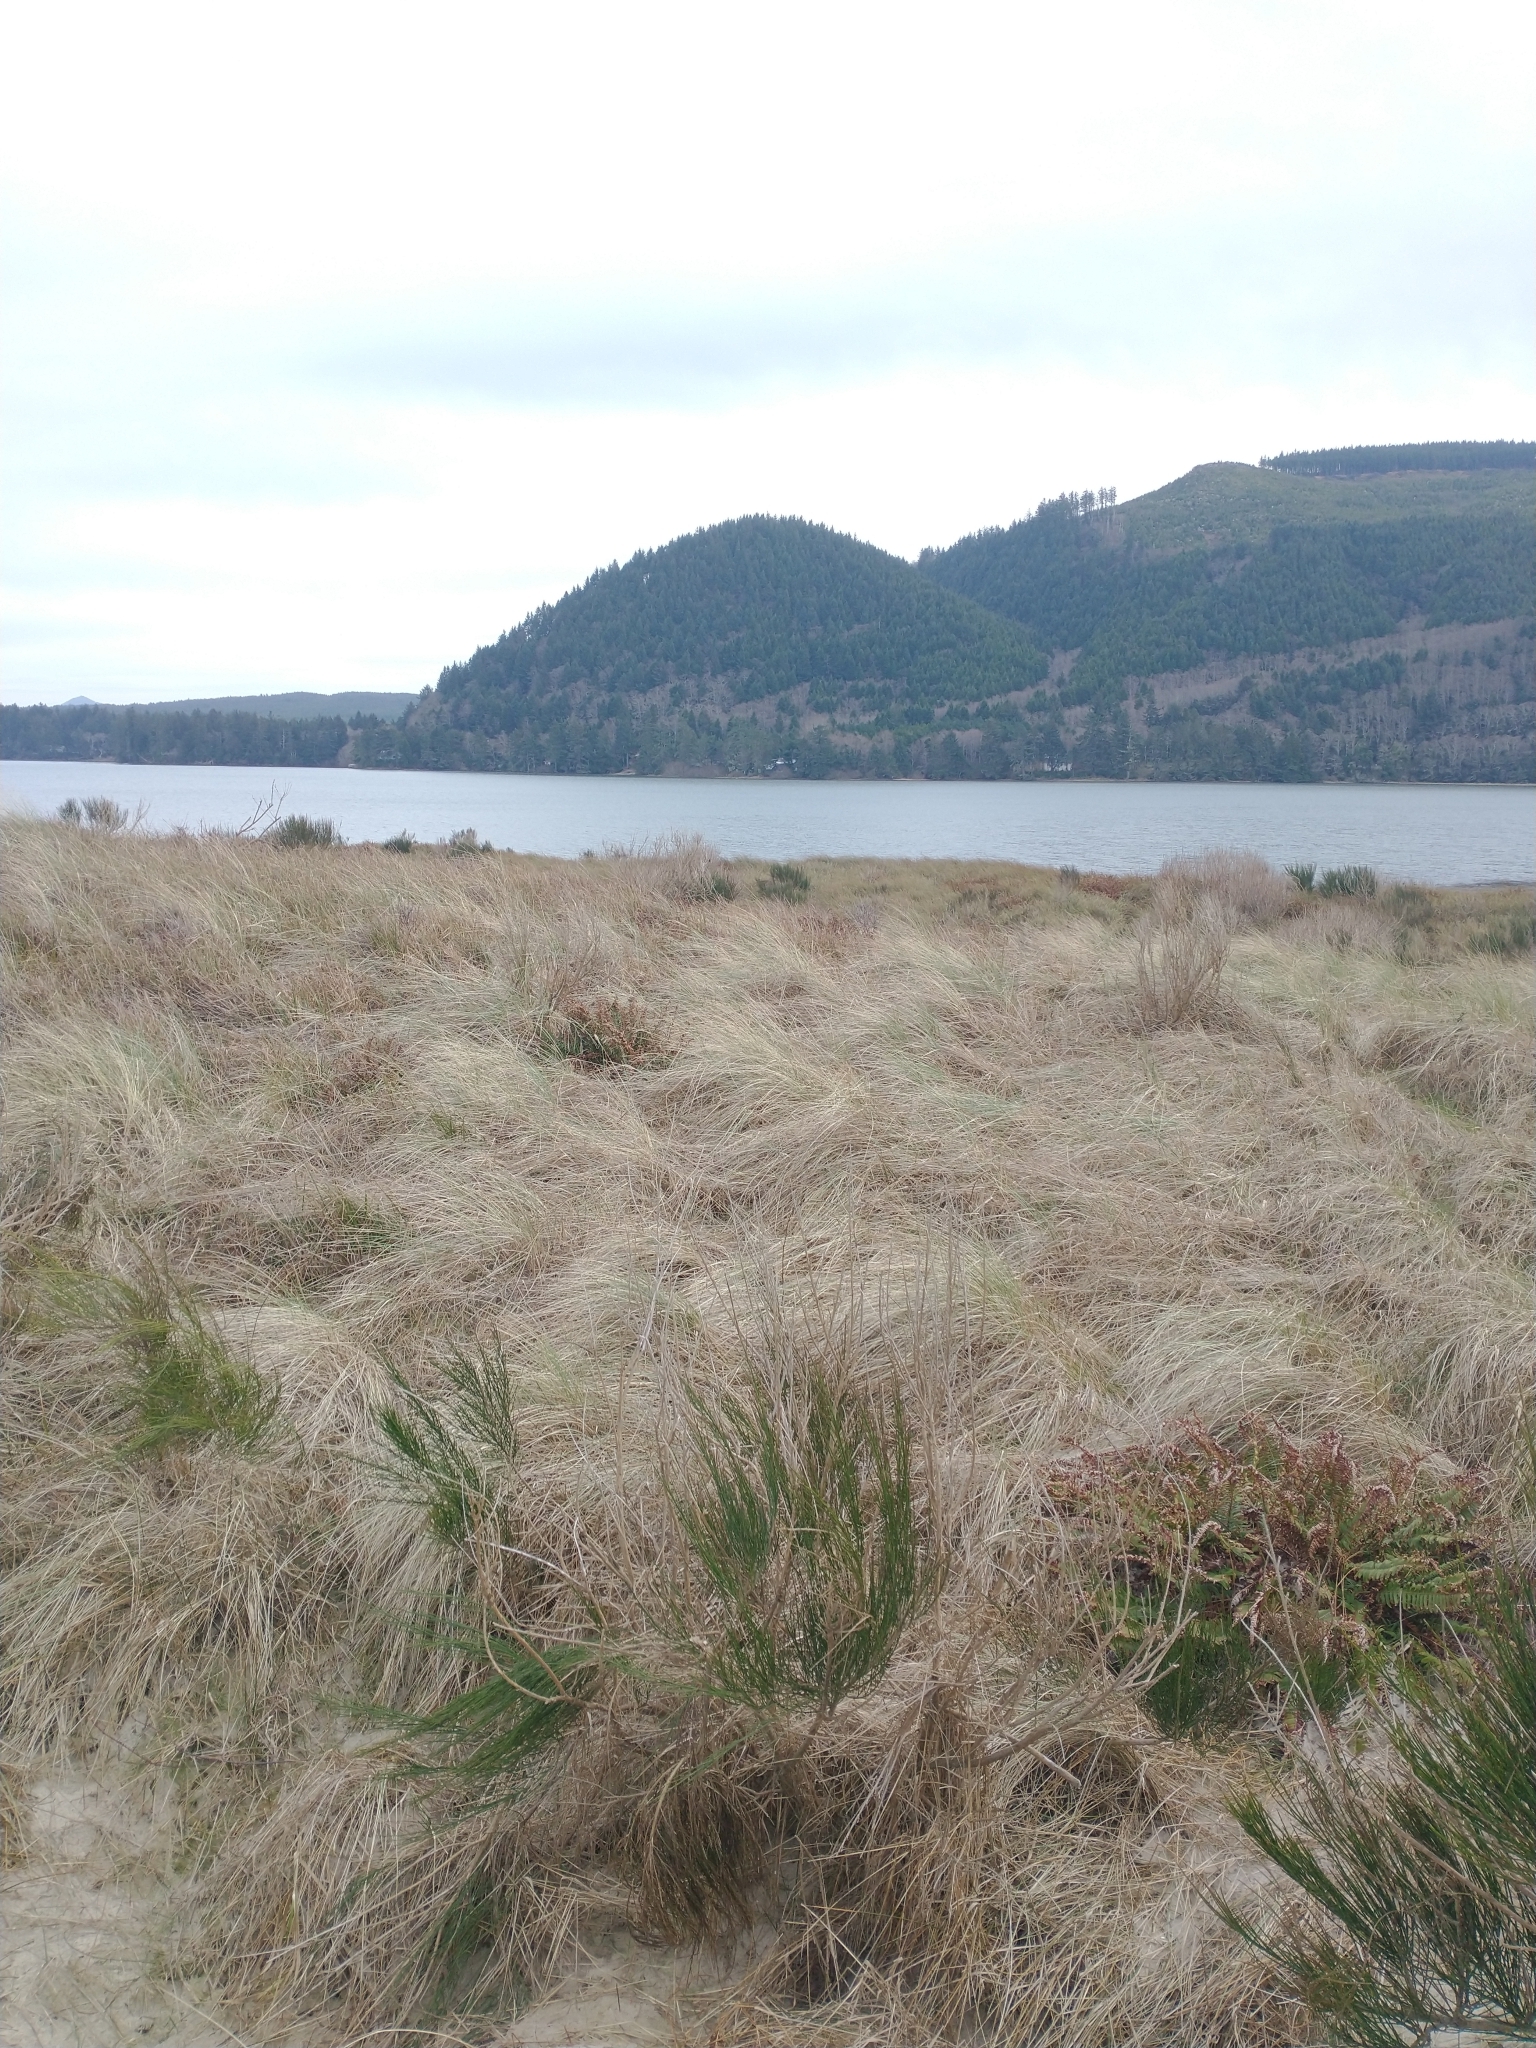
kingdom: Plantae
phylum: Tracheophyta
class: Polypodiopsida
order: Polypodiales
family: Dryopteridaceae
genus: Polystichum
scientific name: Polystichum munitum
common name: Western sword-fern
